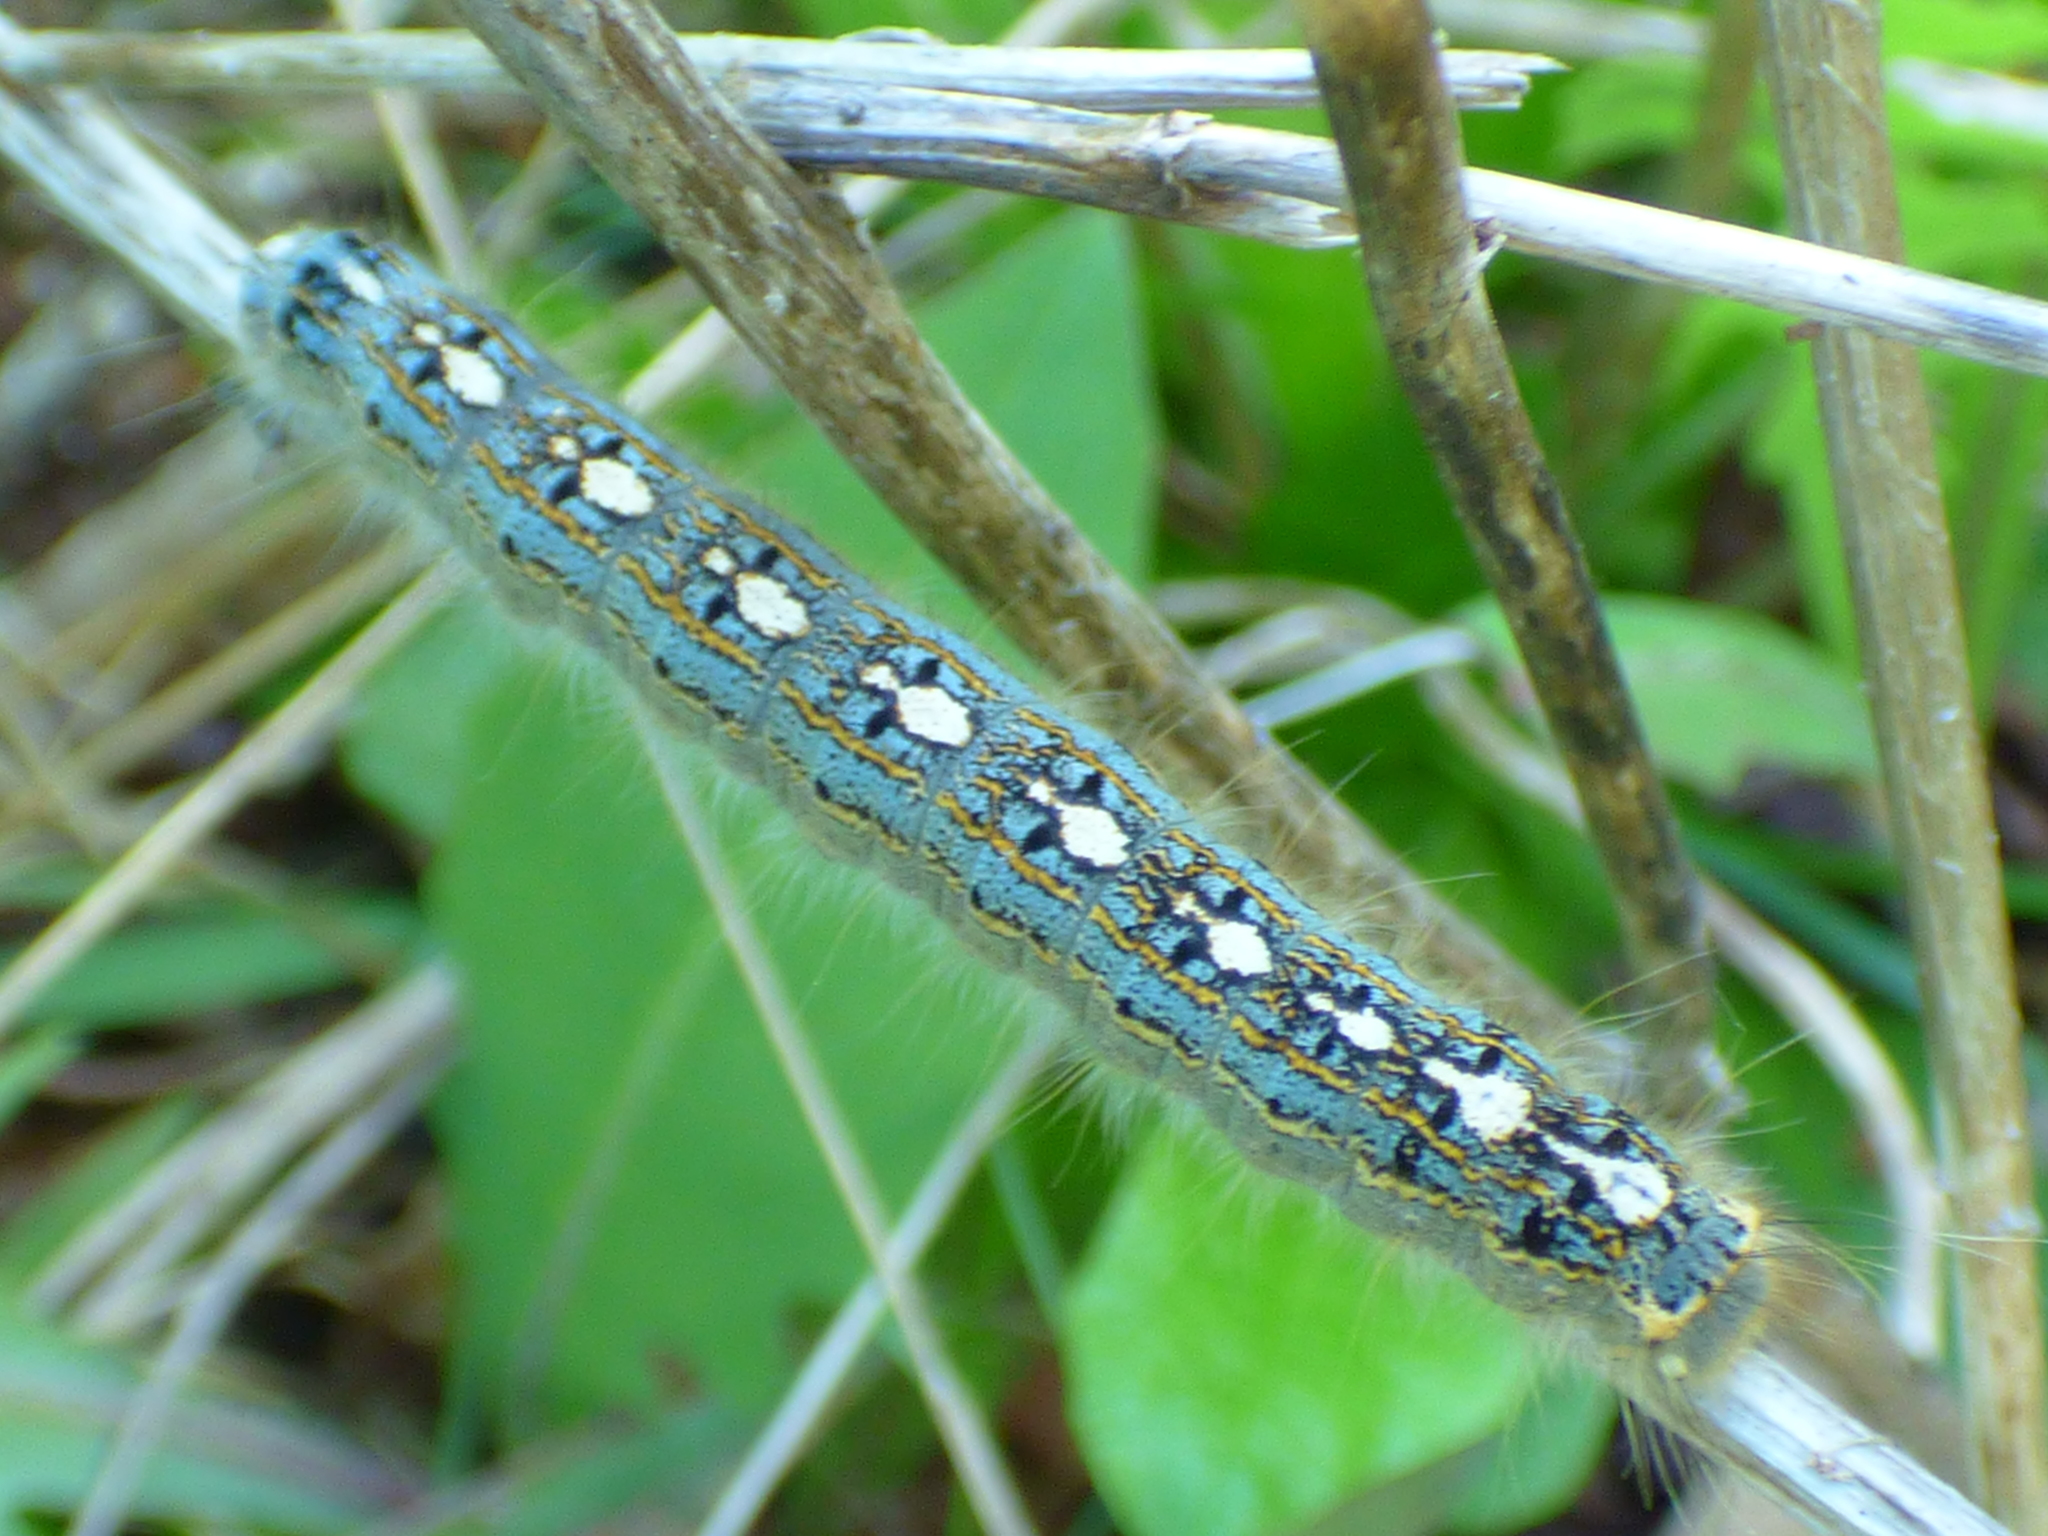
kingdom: Animalia
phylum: Arthropoda
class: Insecta
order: Lepidoptera
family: Lasiocampidae
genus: Malacosoma
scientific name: Malacosoma disstria
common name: Forest tent caterpillar
